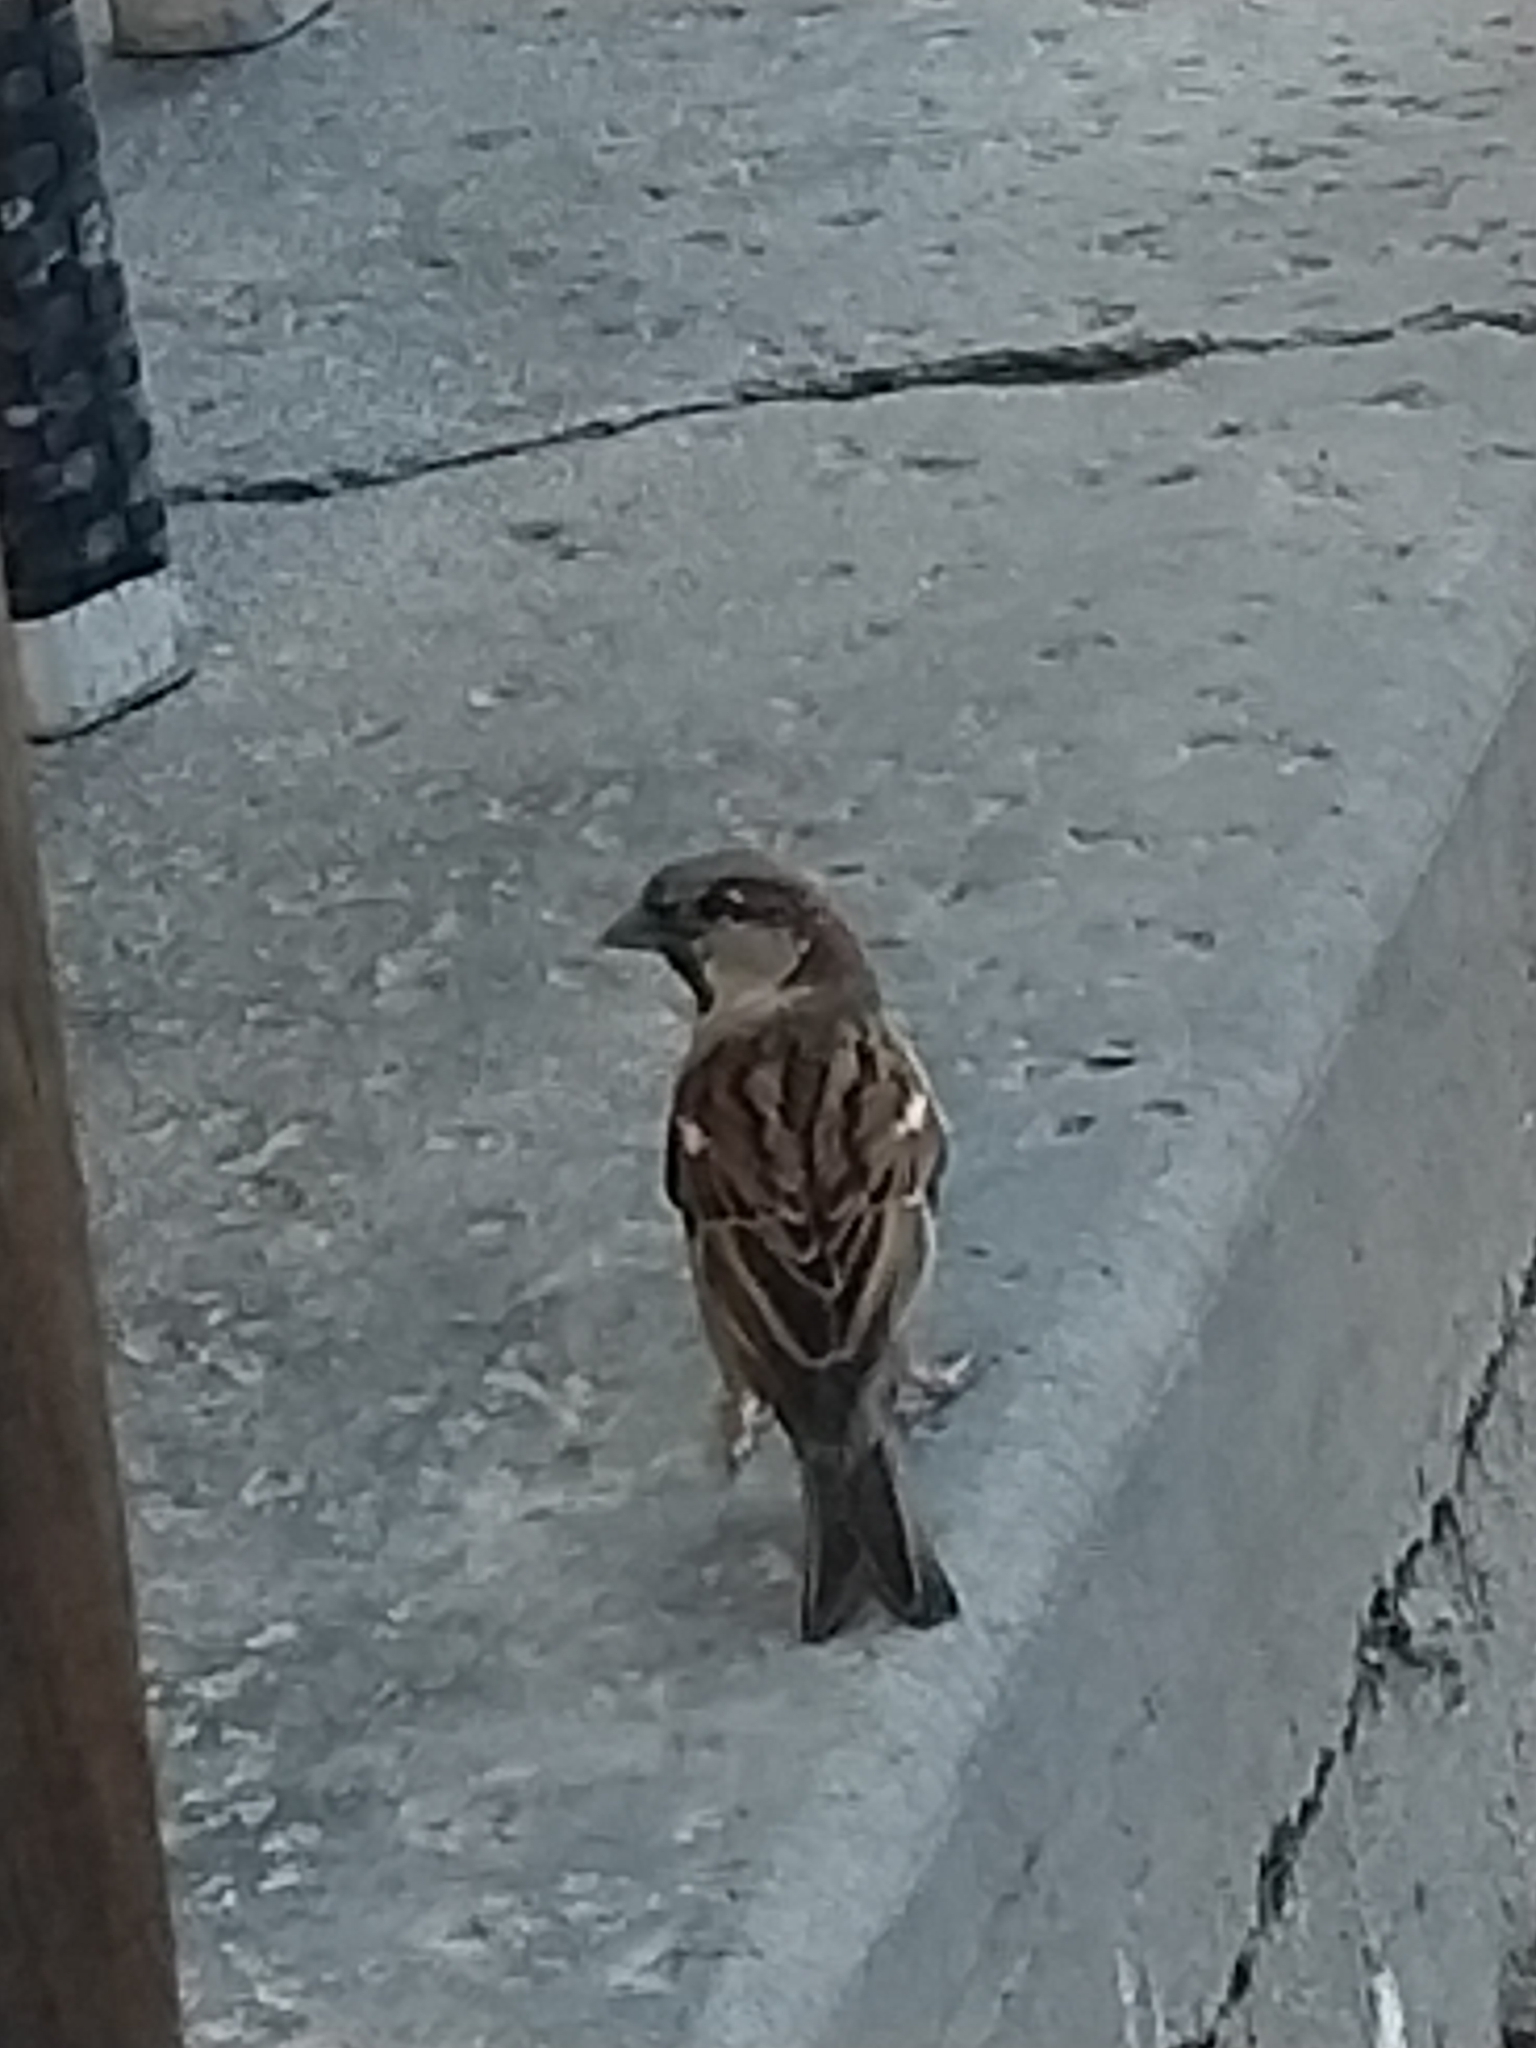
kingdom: Animalia
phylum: Chordata
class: Aves
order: Passeriformes
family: Passeridae
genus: Passer
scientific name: Passer domesticus
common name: House sparrow
